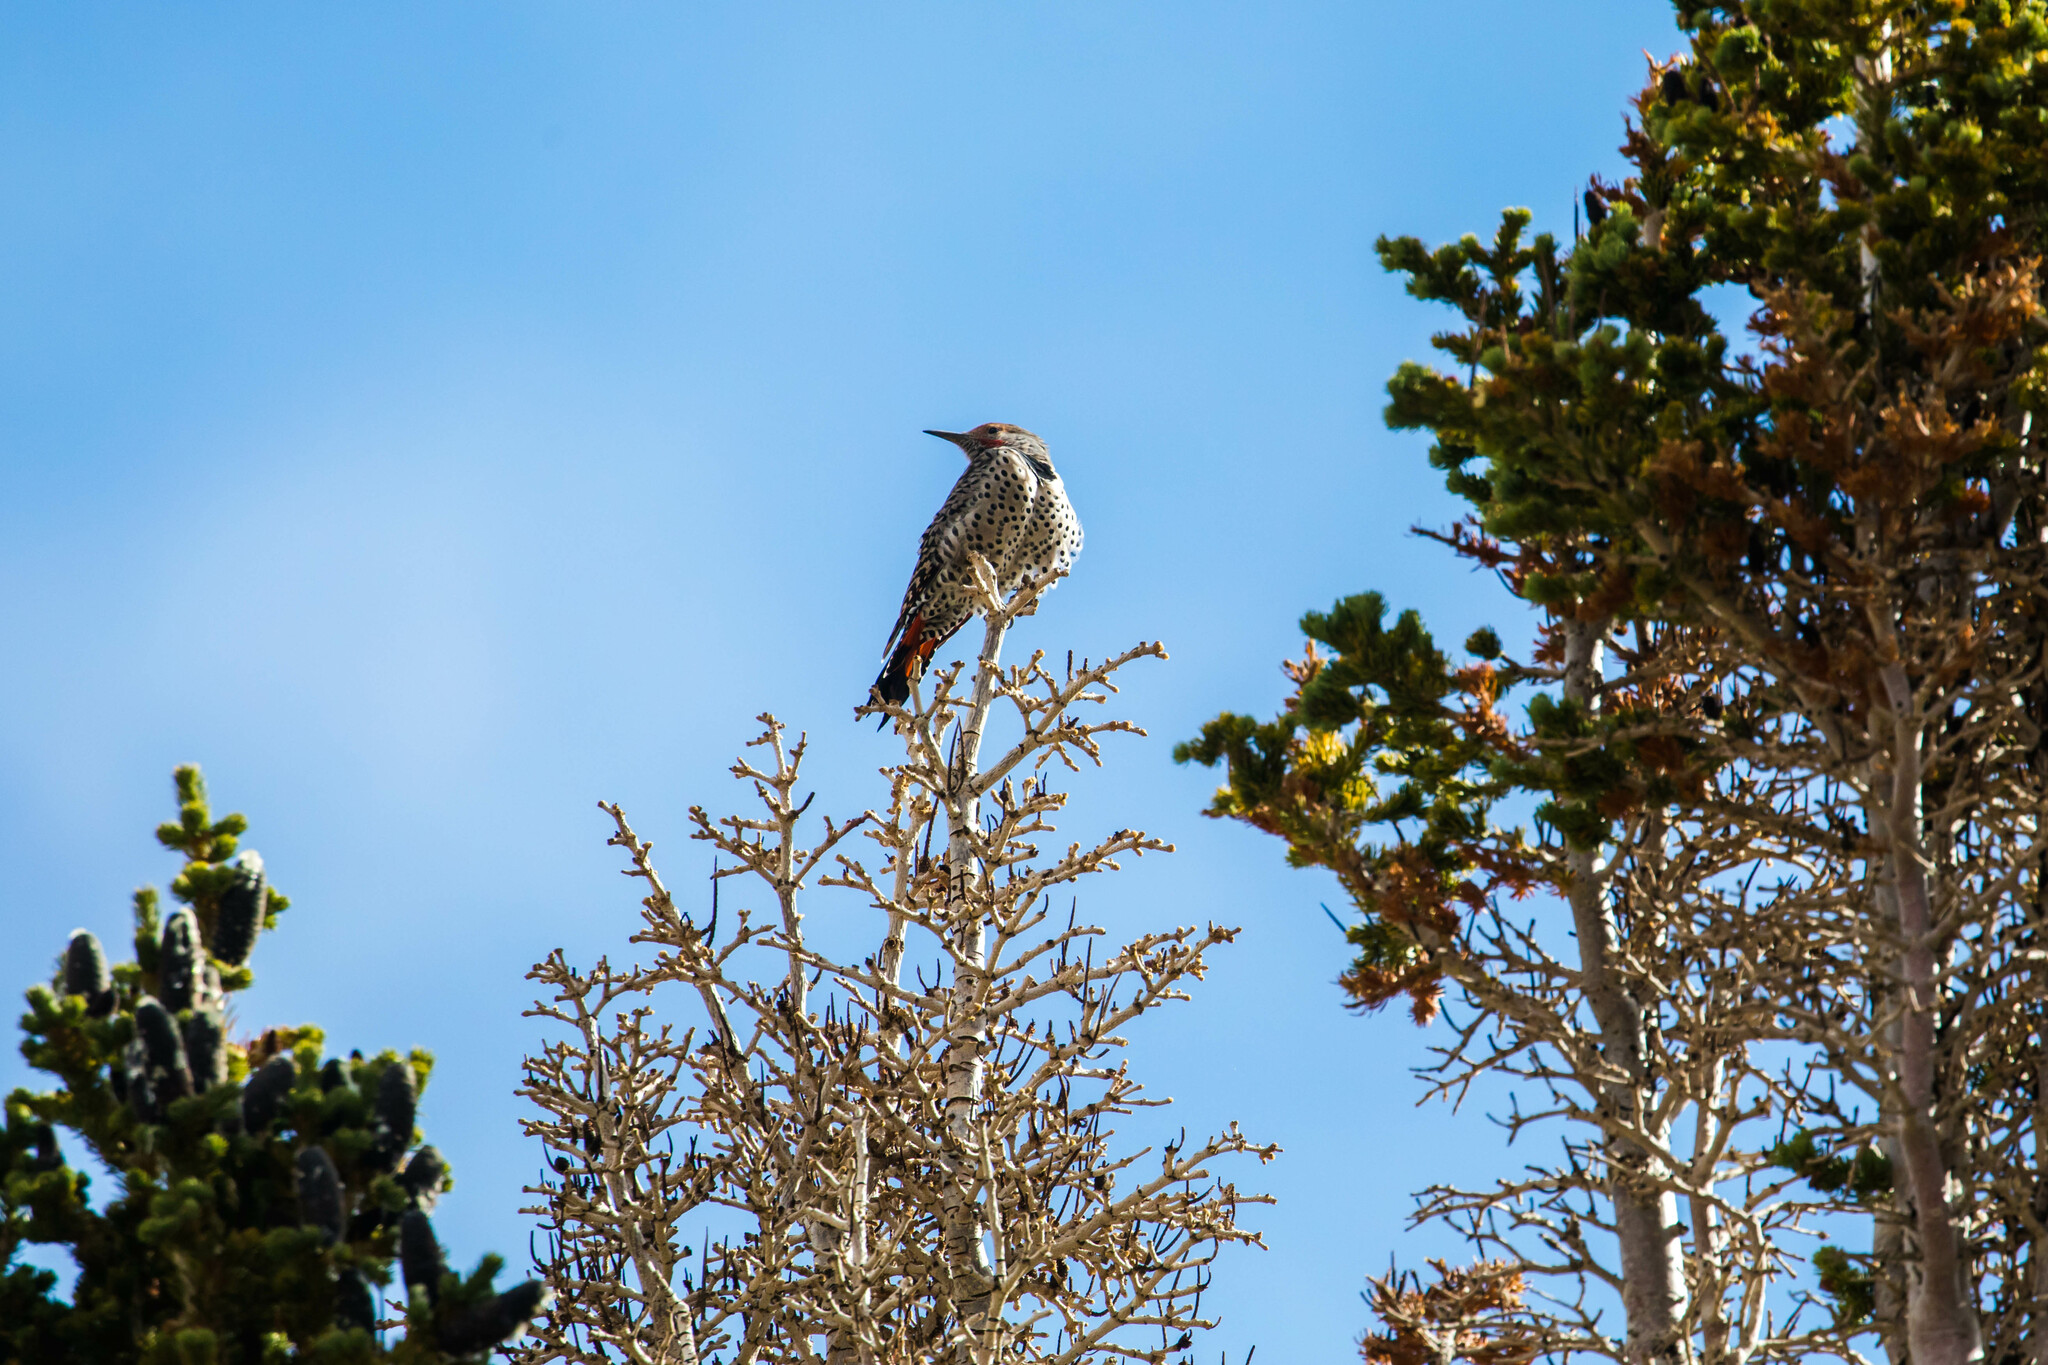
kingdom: Animalia
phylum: Chordata
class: Aves
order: Piciformes
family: Picidae
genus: Colaptes
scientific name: Colaptes auratus
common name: Northern flicker
